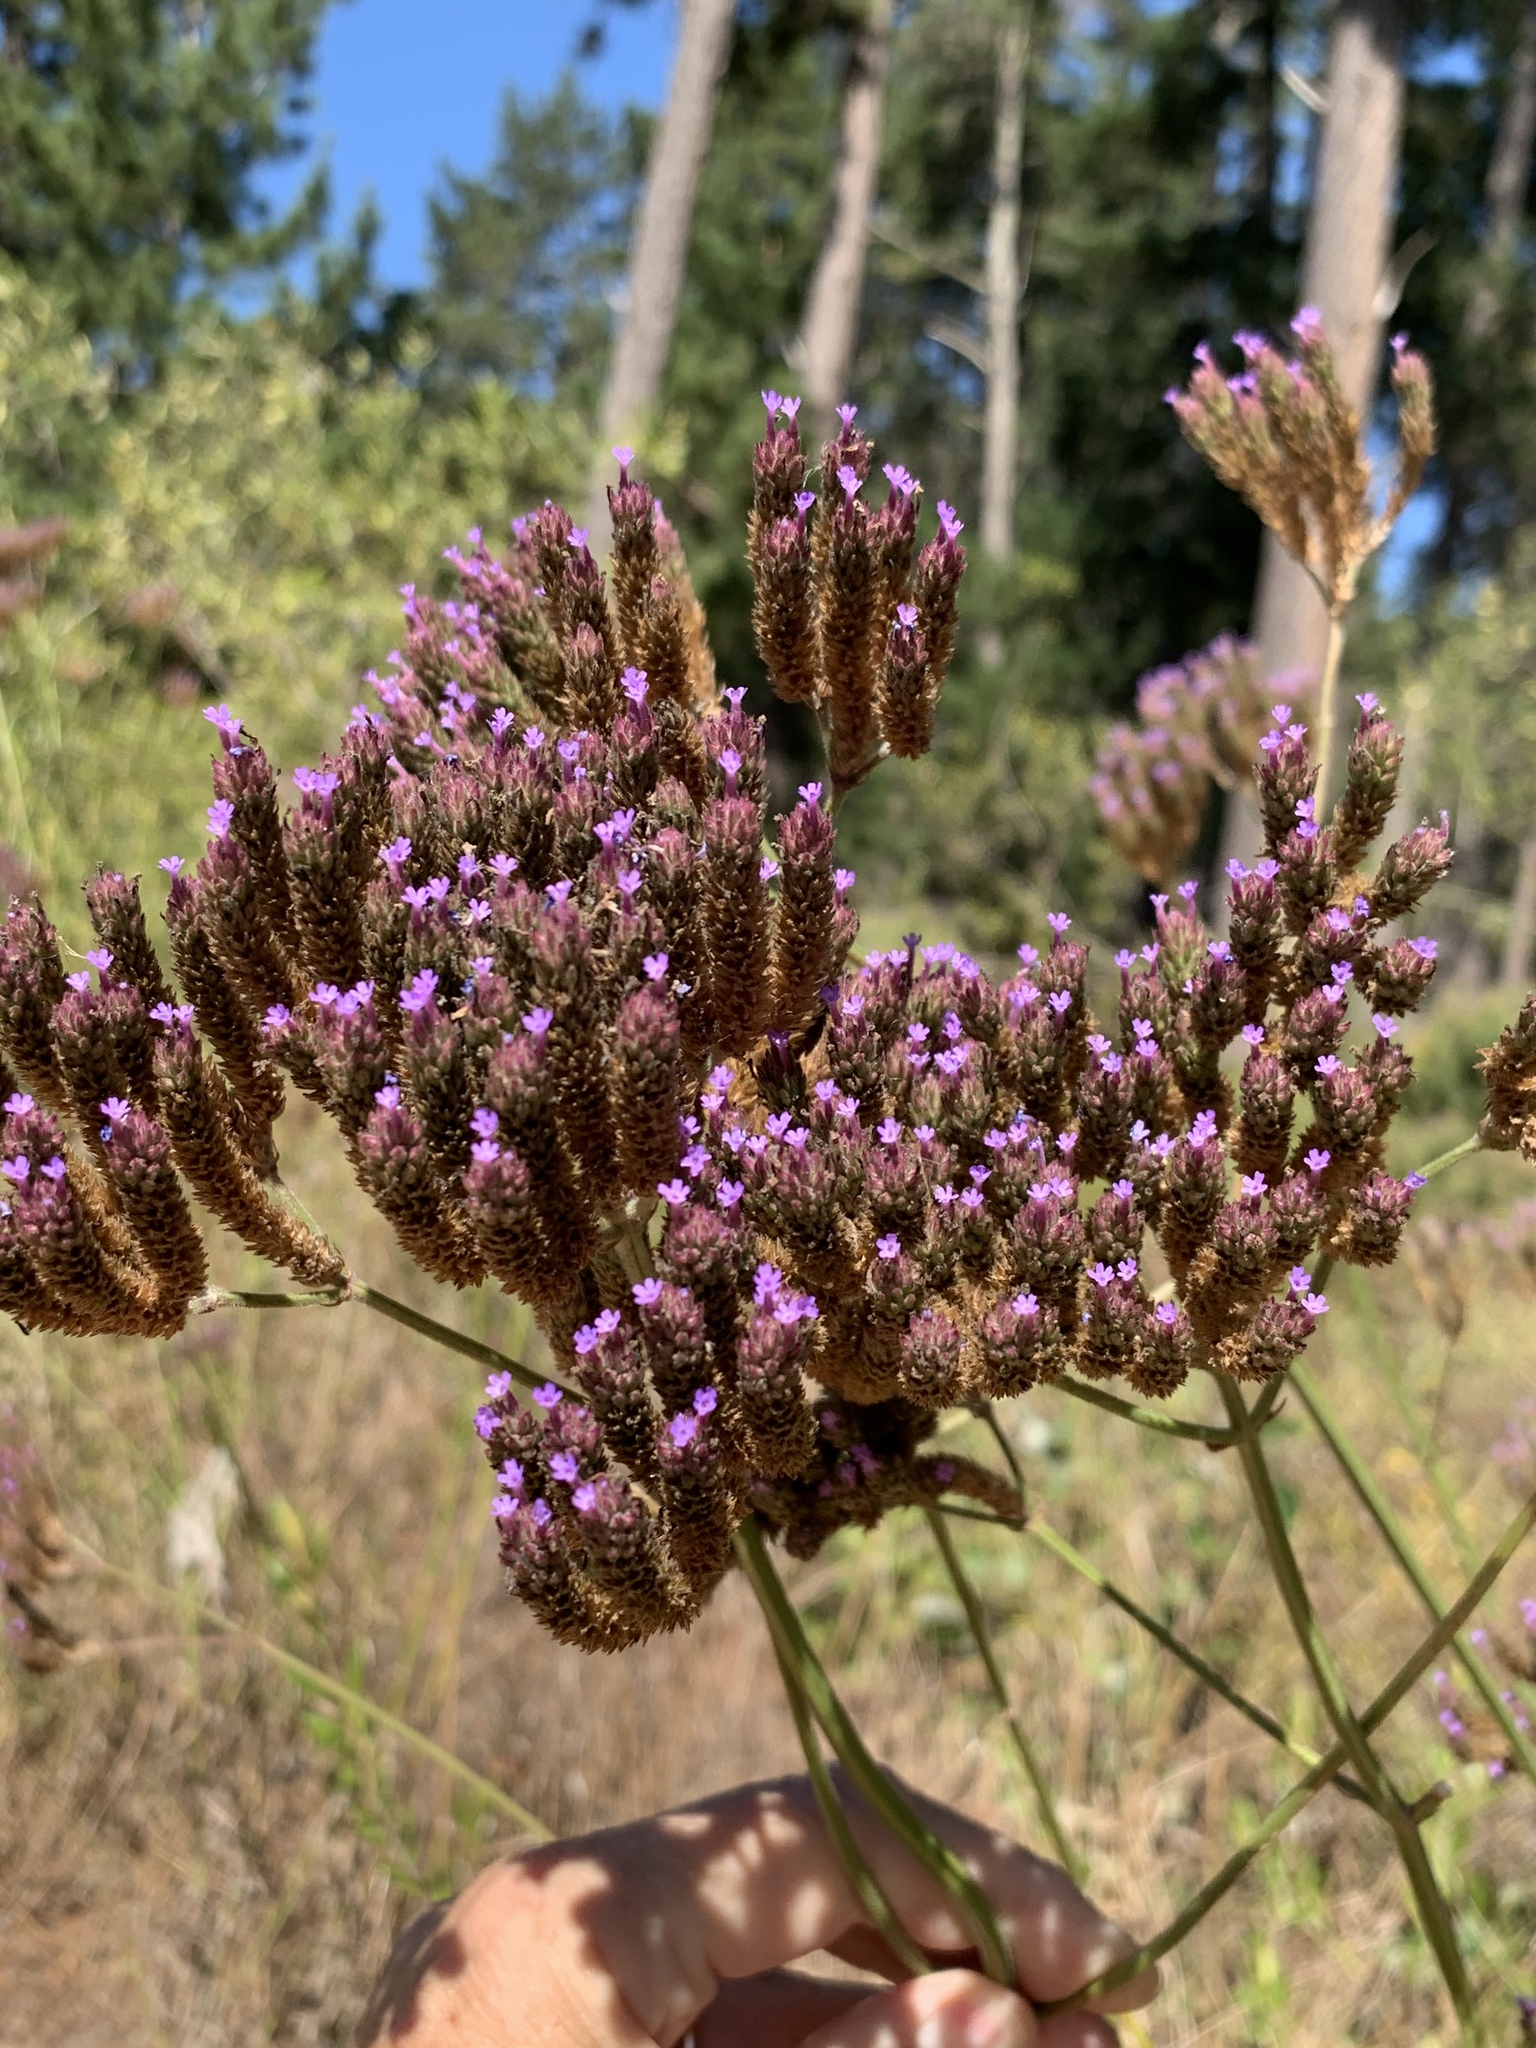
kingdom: Plantae
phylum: Tracheophyta
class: Magnoliopsida
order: Lamiales
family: Verbenaceae
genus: Verbena
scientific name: Verbena bonariensis
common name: Purpletop vervain
